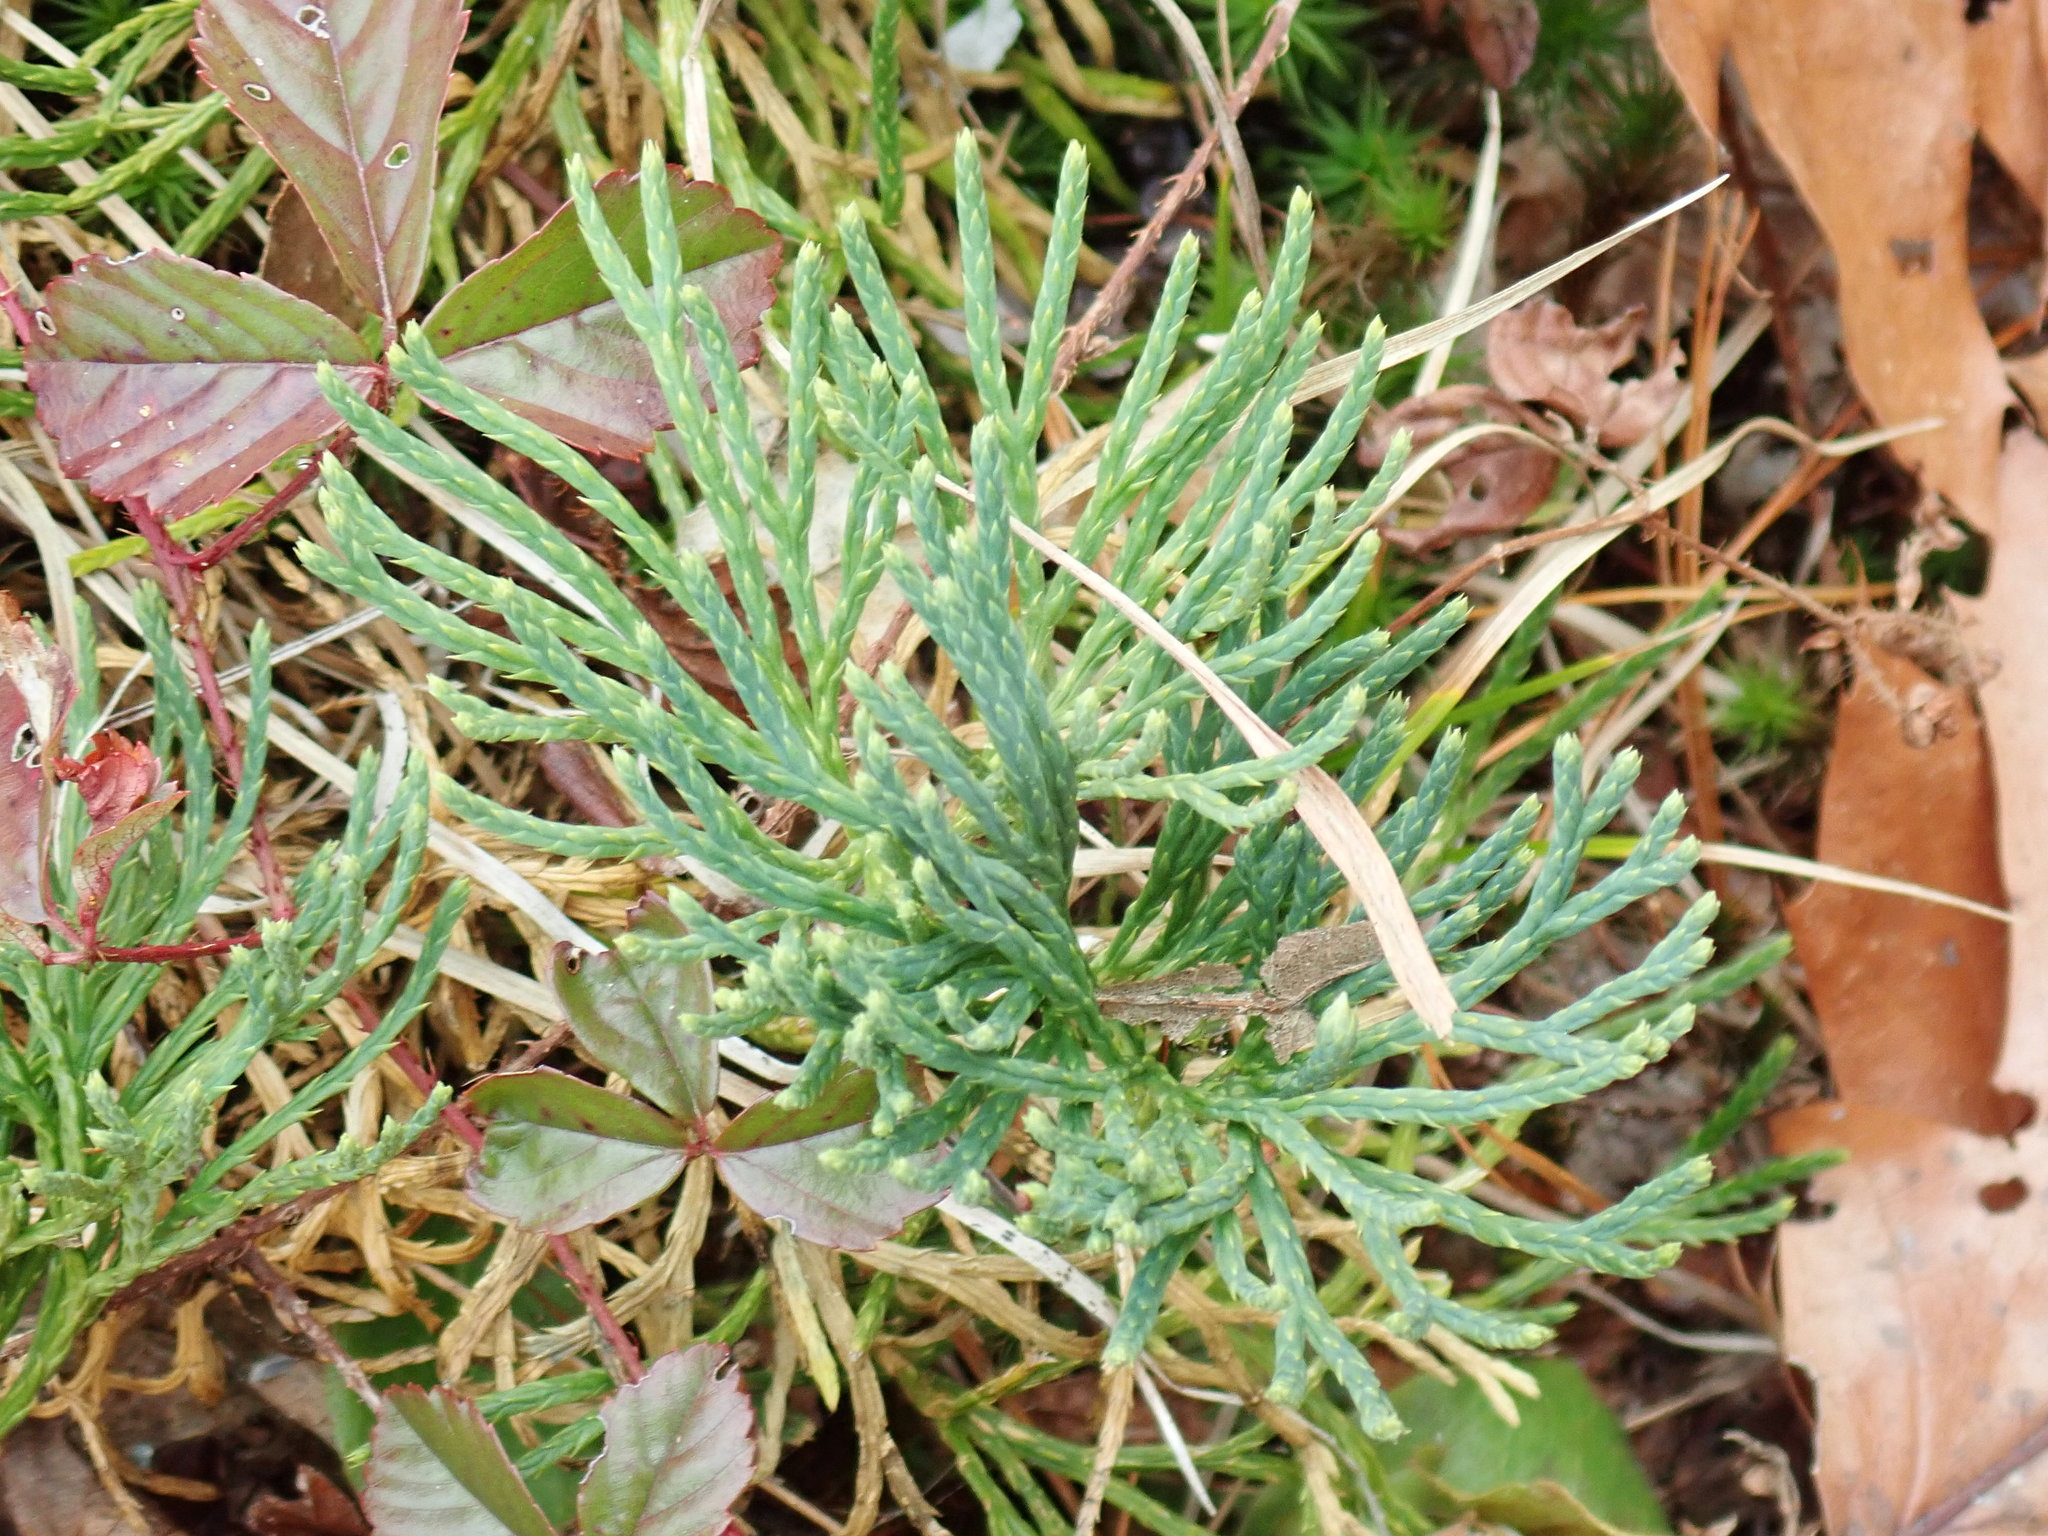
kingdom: Plantae
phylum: Tracheophyta
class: Lycopodiopsida
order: Lycopodiales
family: Lycopodiaceae
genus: Diphasiastrum
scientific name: Diphasiastrum tristachyum
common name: Blue ground-cedar
